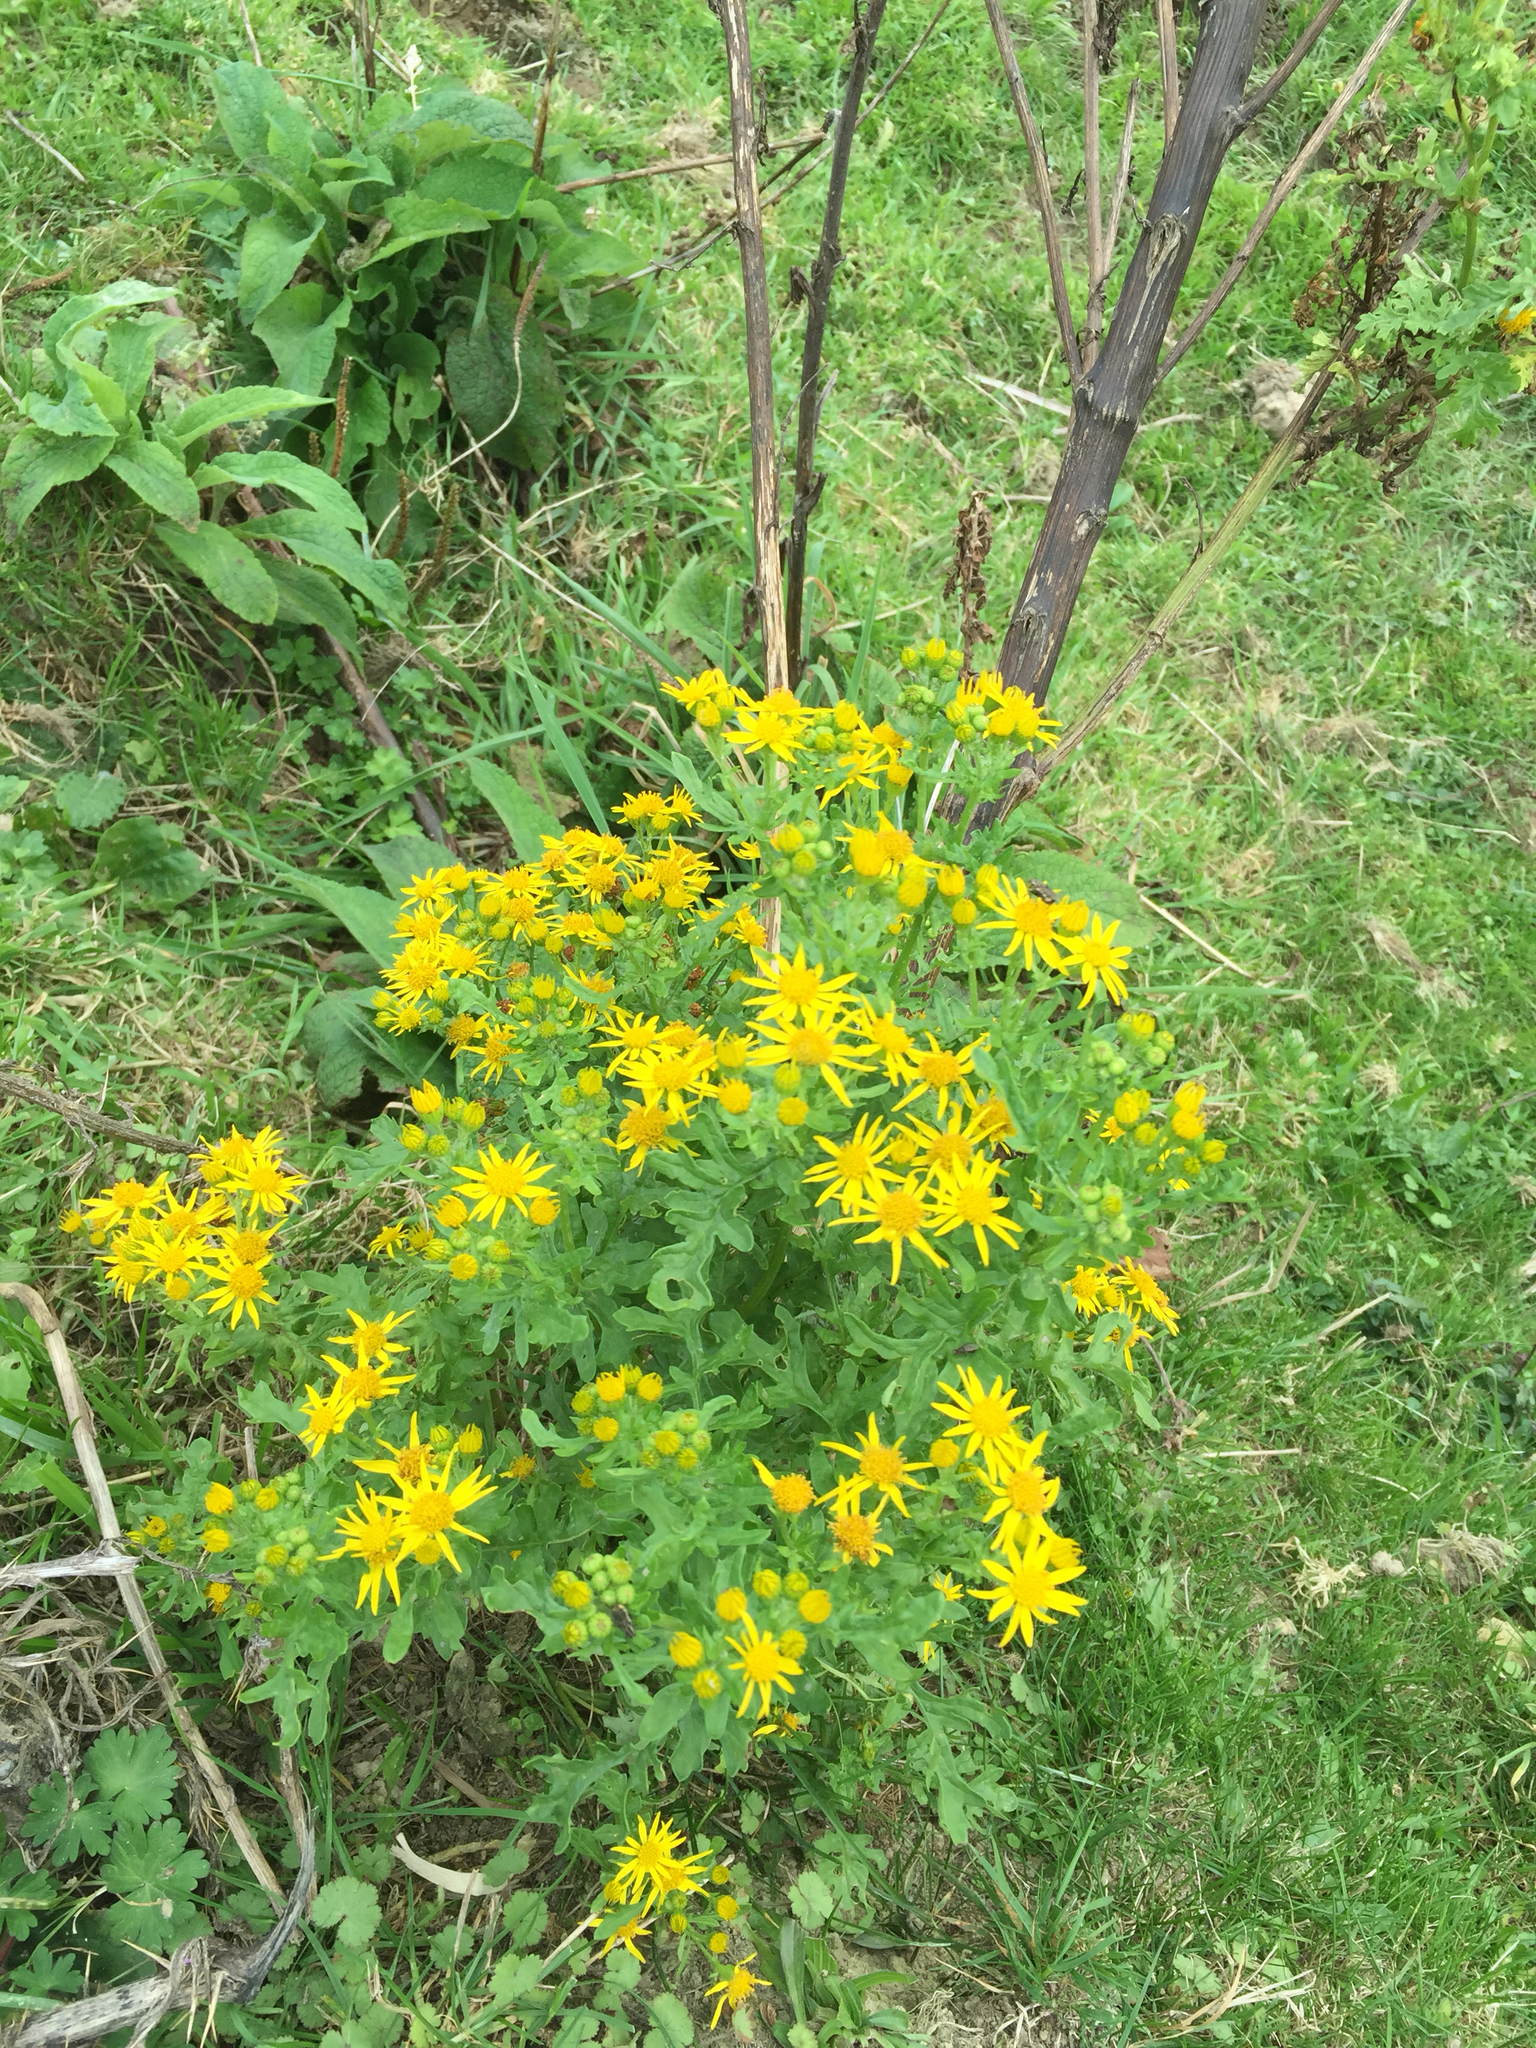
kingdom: Plantae
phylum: Tracheophyta
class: Magnoliopsida
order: Asterales
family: Asteraceae
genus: Jacobaea
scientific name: Jacobaea vulgaris
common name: Stinking willie
